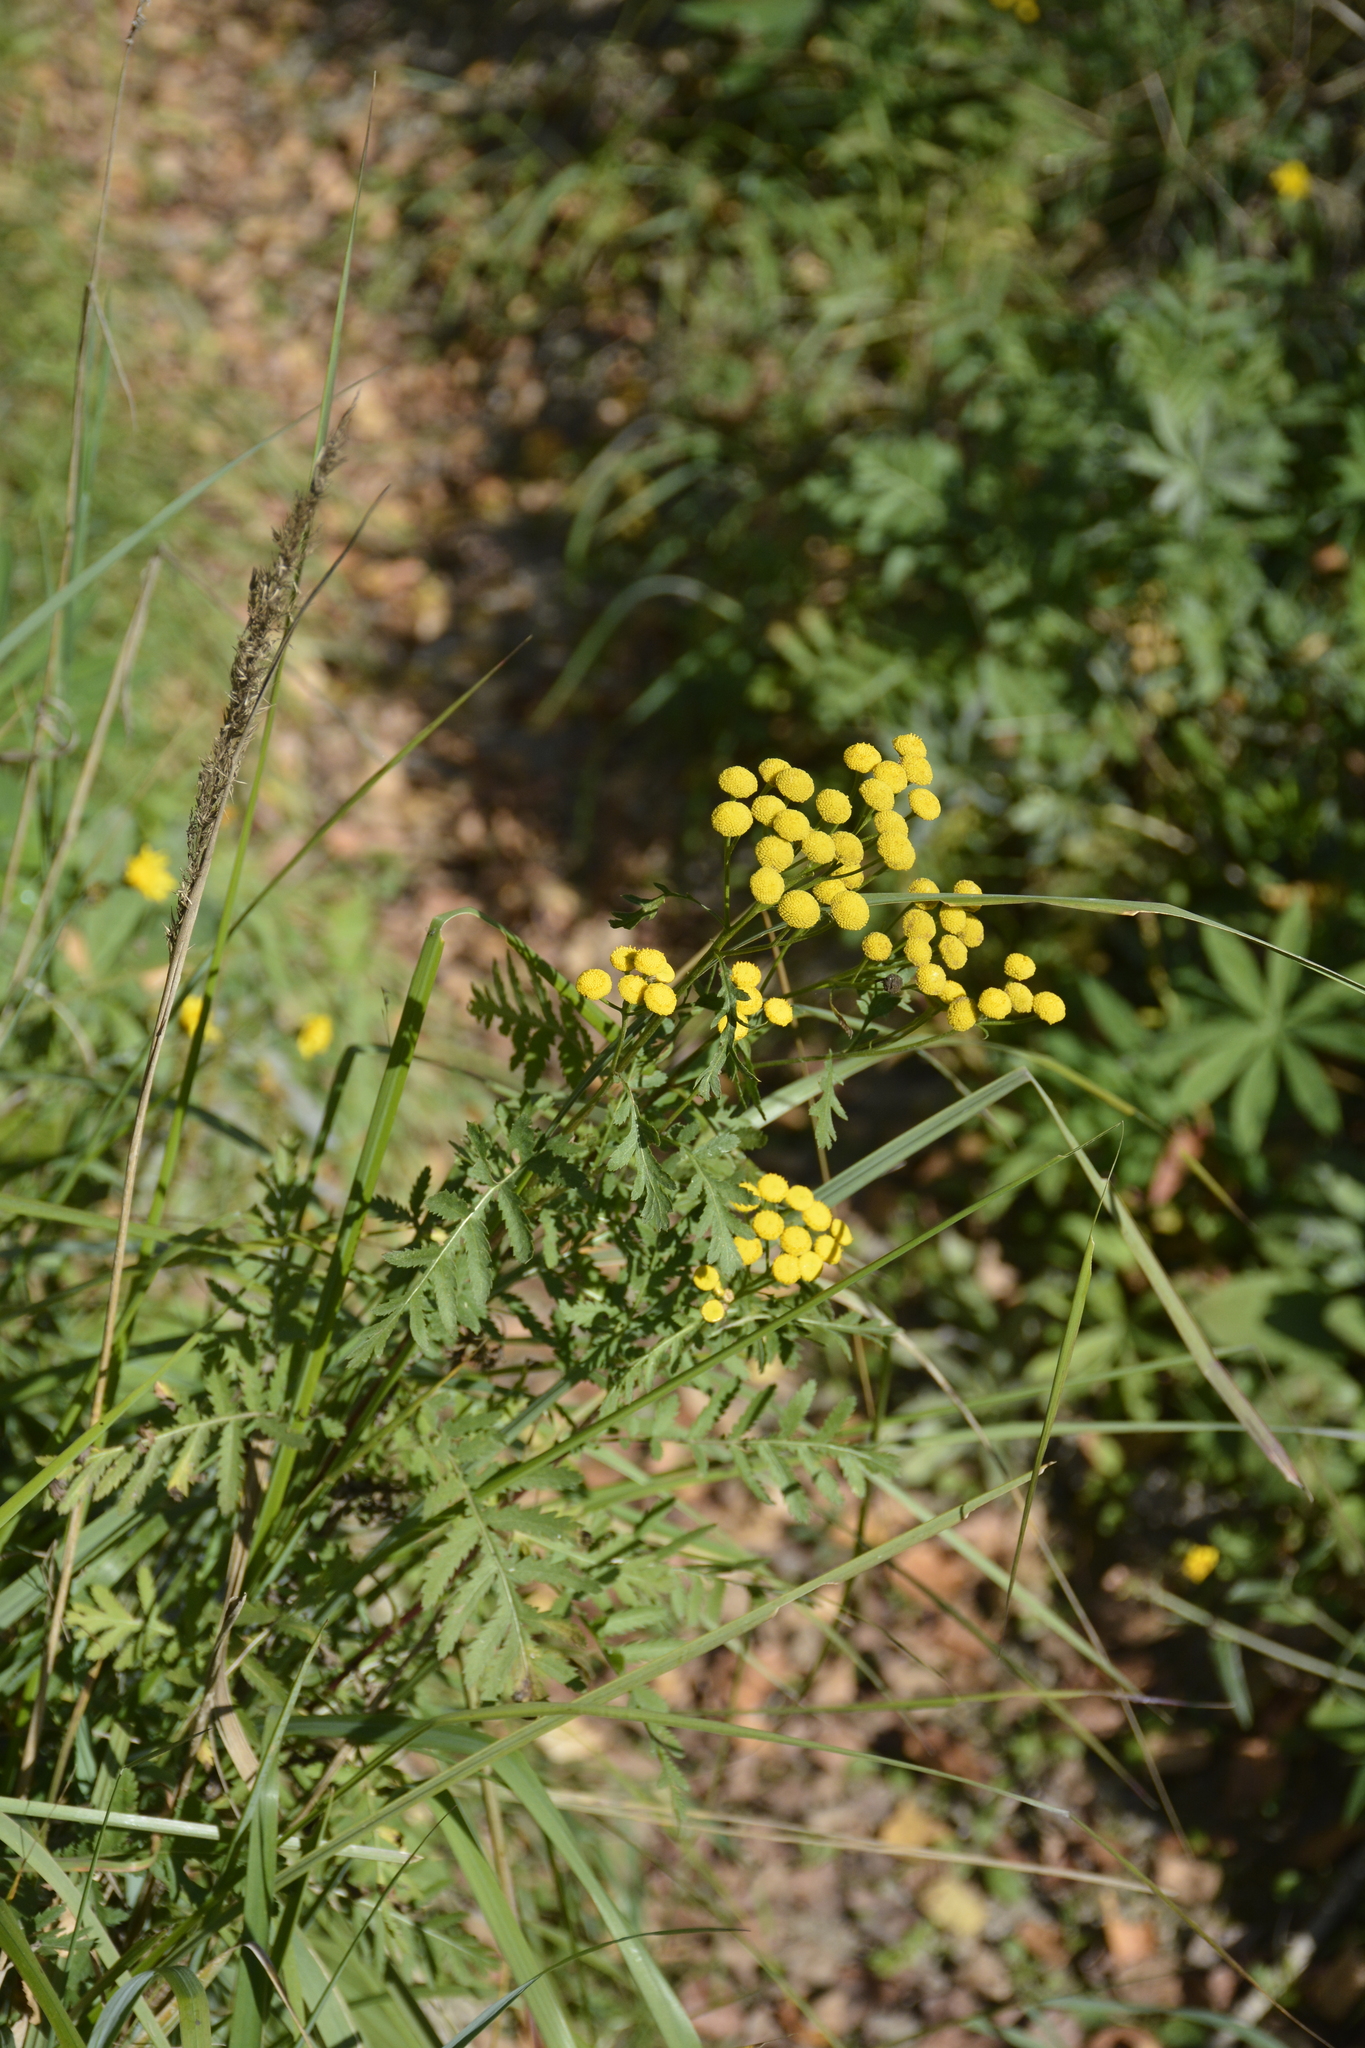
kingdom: Plantae
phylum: Tracheophyta
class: Magnoliopsida
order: Asterales
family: Asteraceae
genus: Tanacetum
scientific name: Tanacetum vulgare
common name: Common tansy
